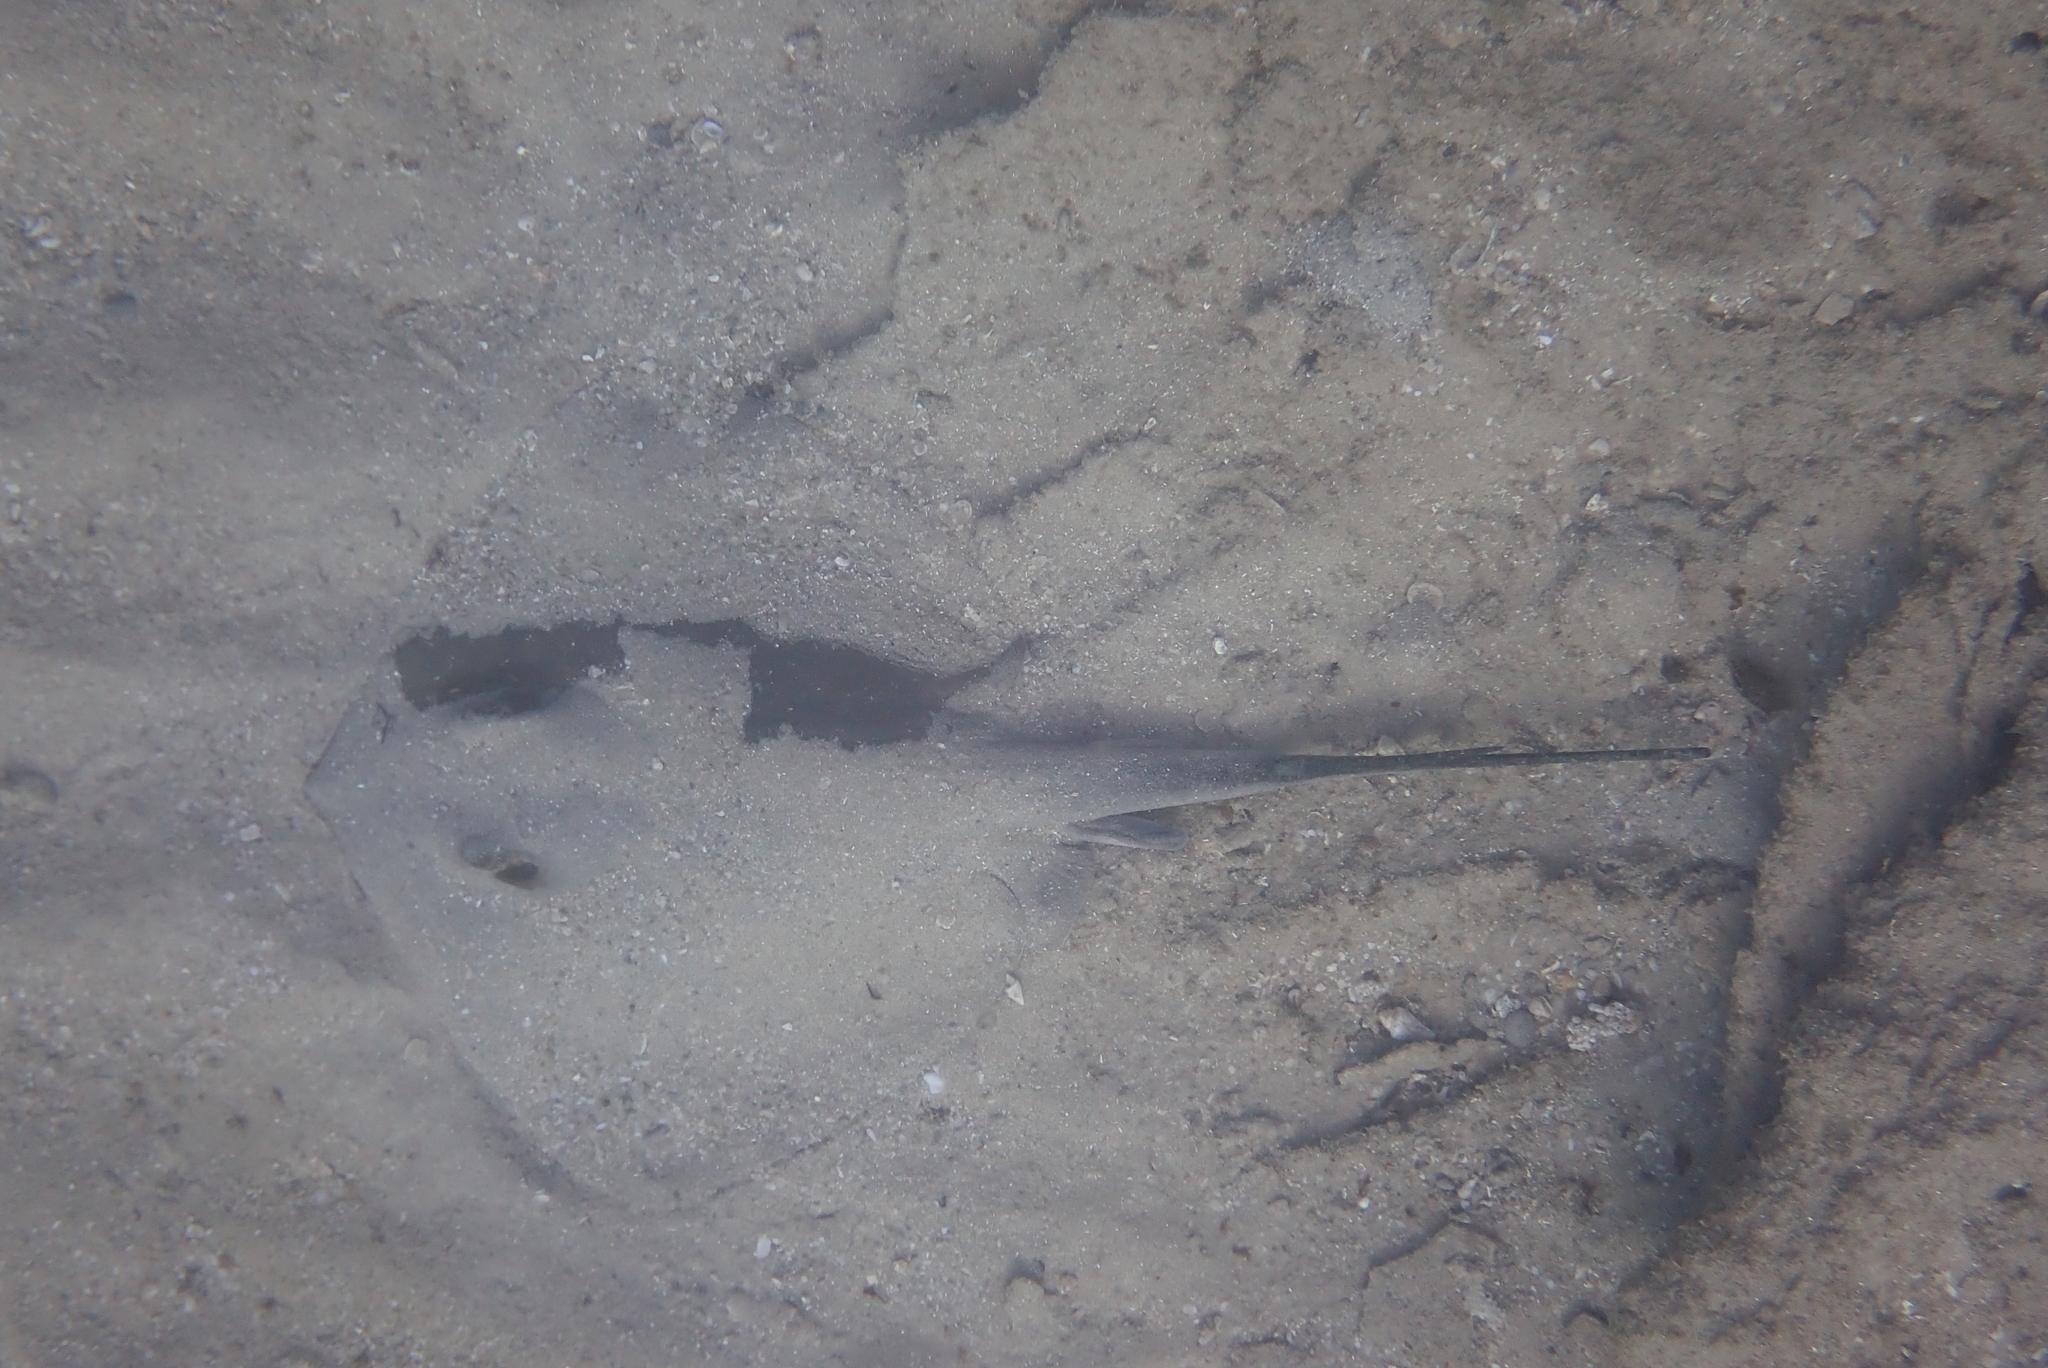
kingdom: Animalia
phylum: Chordata
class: Elasmobranchii
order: Myliobatiformes
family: Dasyatidae
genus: Dasyatis
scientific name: Dasyatis pastinaca
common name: Common stingray
